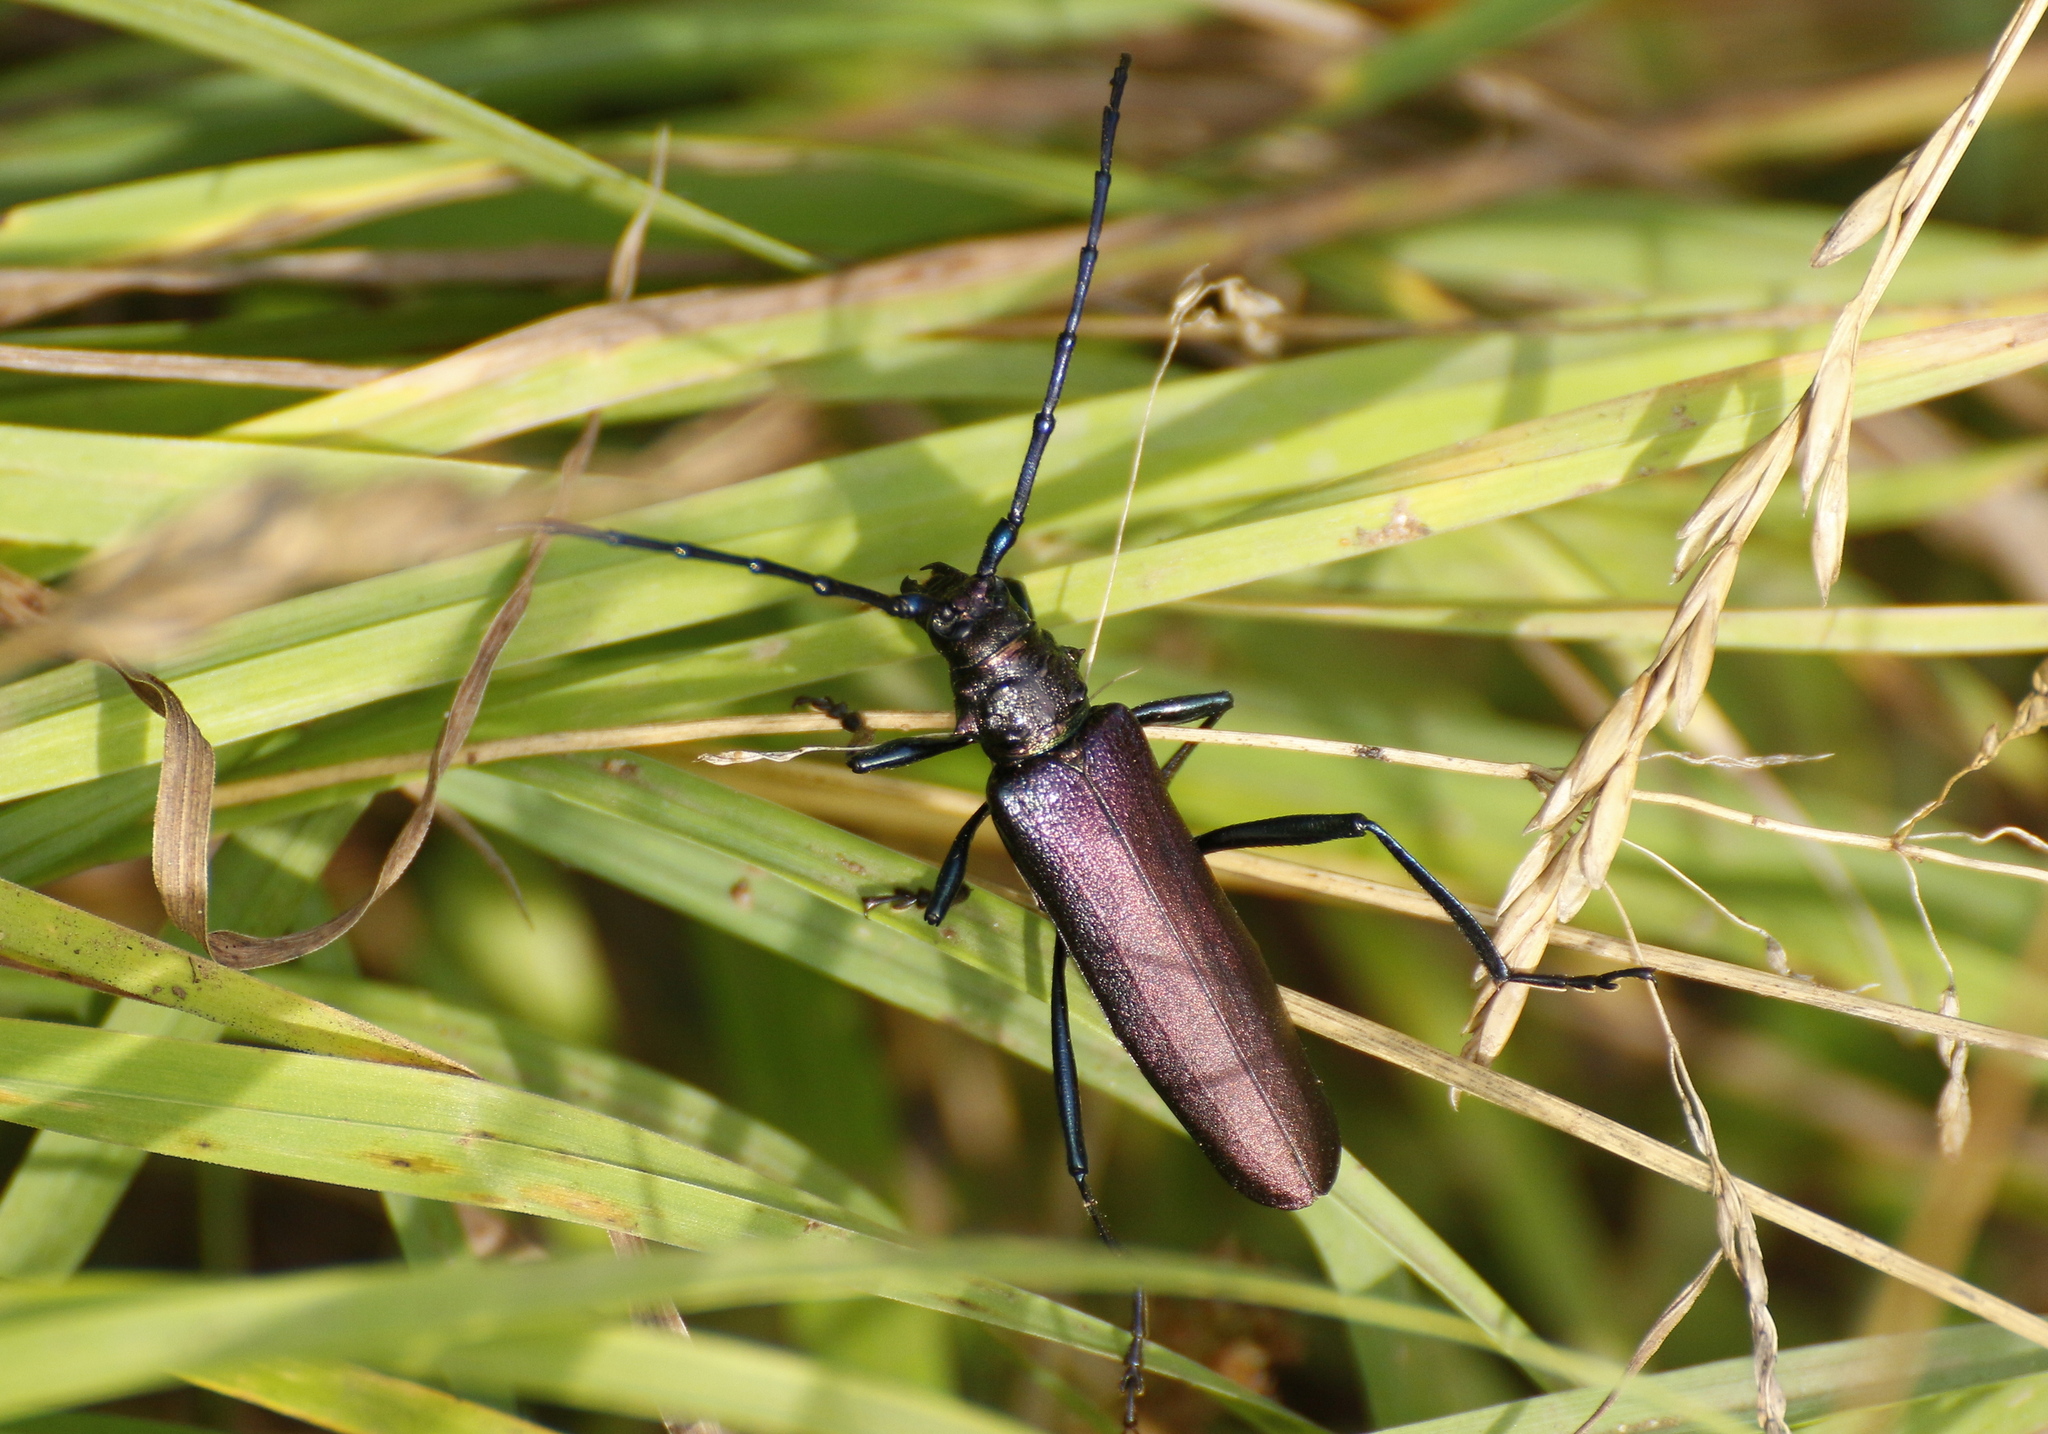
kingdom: Animalia
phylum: Arthropoda
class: Insecta
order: Coleoptera
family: Cerambycidae
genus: Aromia
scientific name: Aromia moschata
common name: Musk beetle
